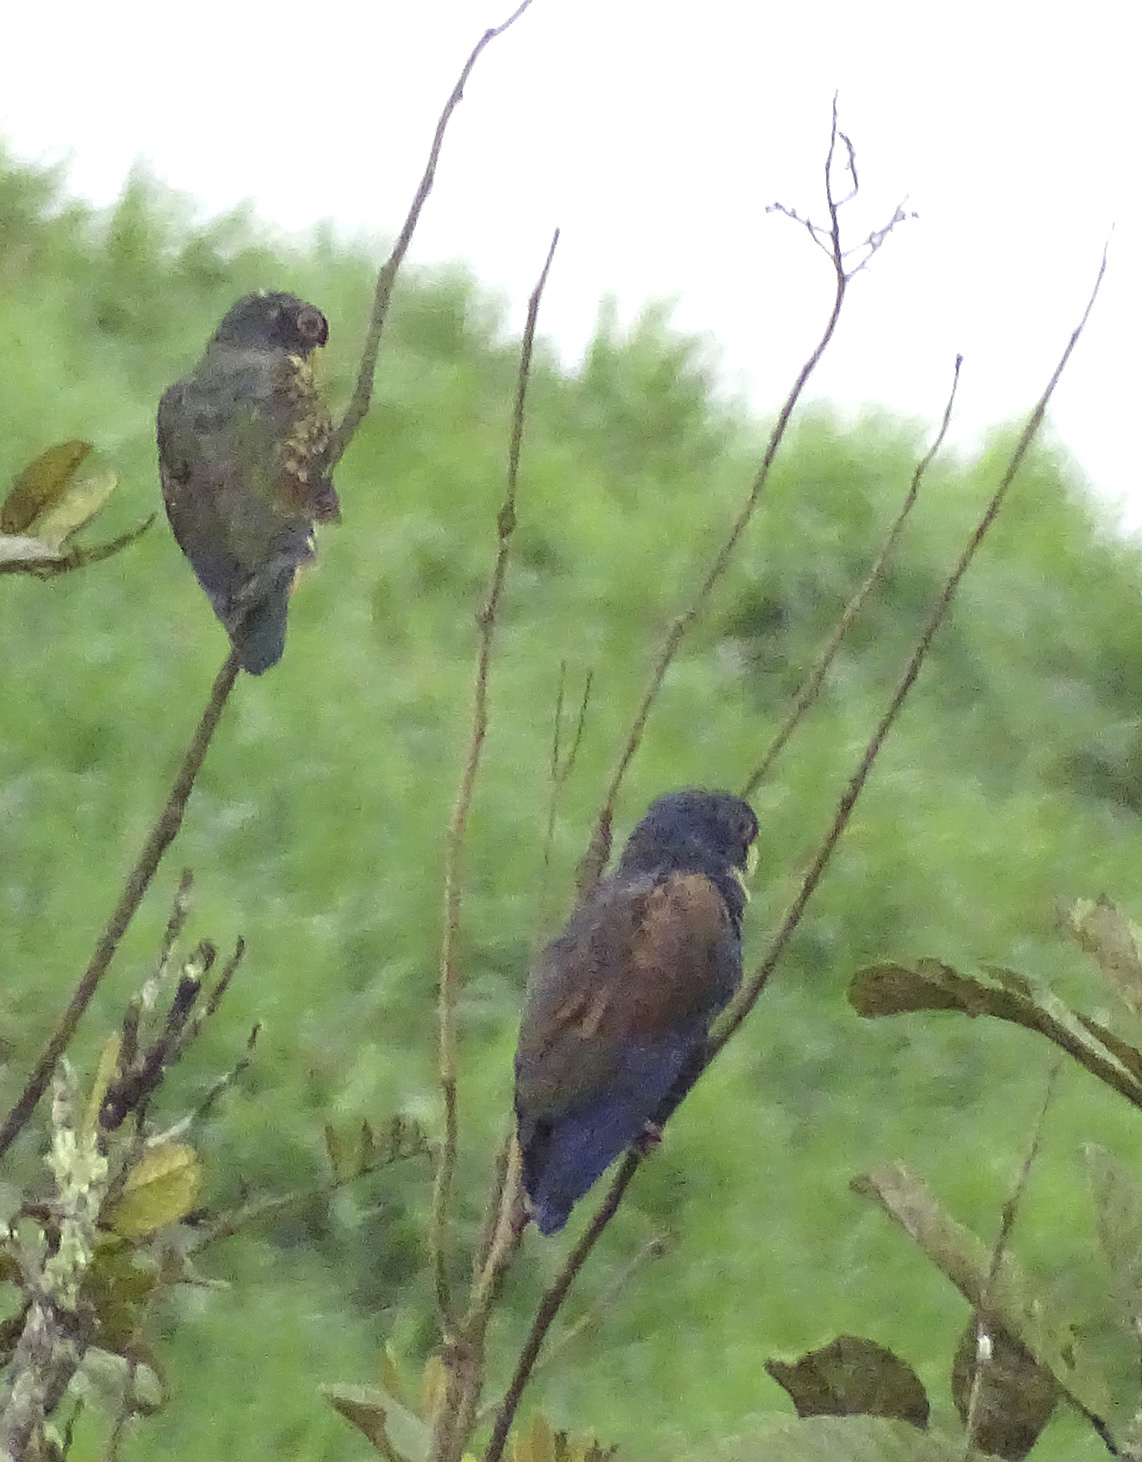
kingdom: Animalia
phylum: Chordata
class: Aves
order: Psittaciformes
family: Psittacidae
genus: Pionus
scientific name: Pionus chalcopterus
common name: Bronze-winged parrot
